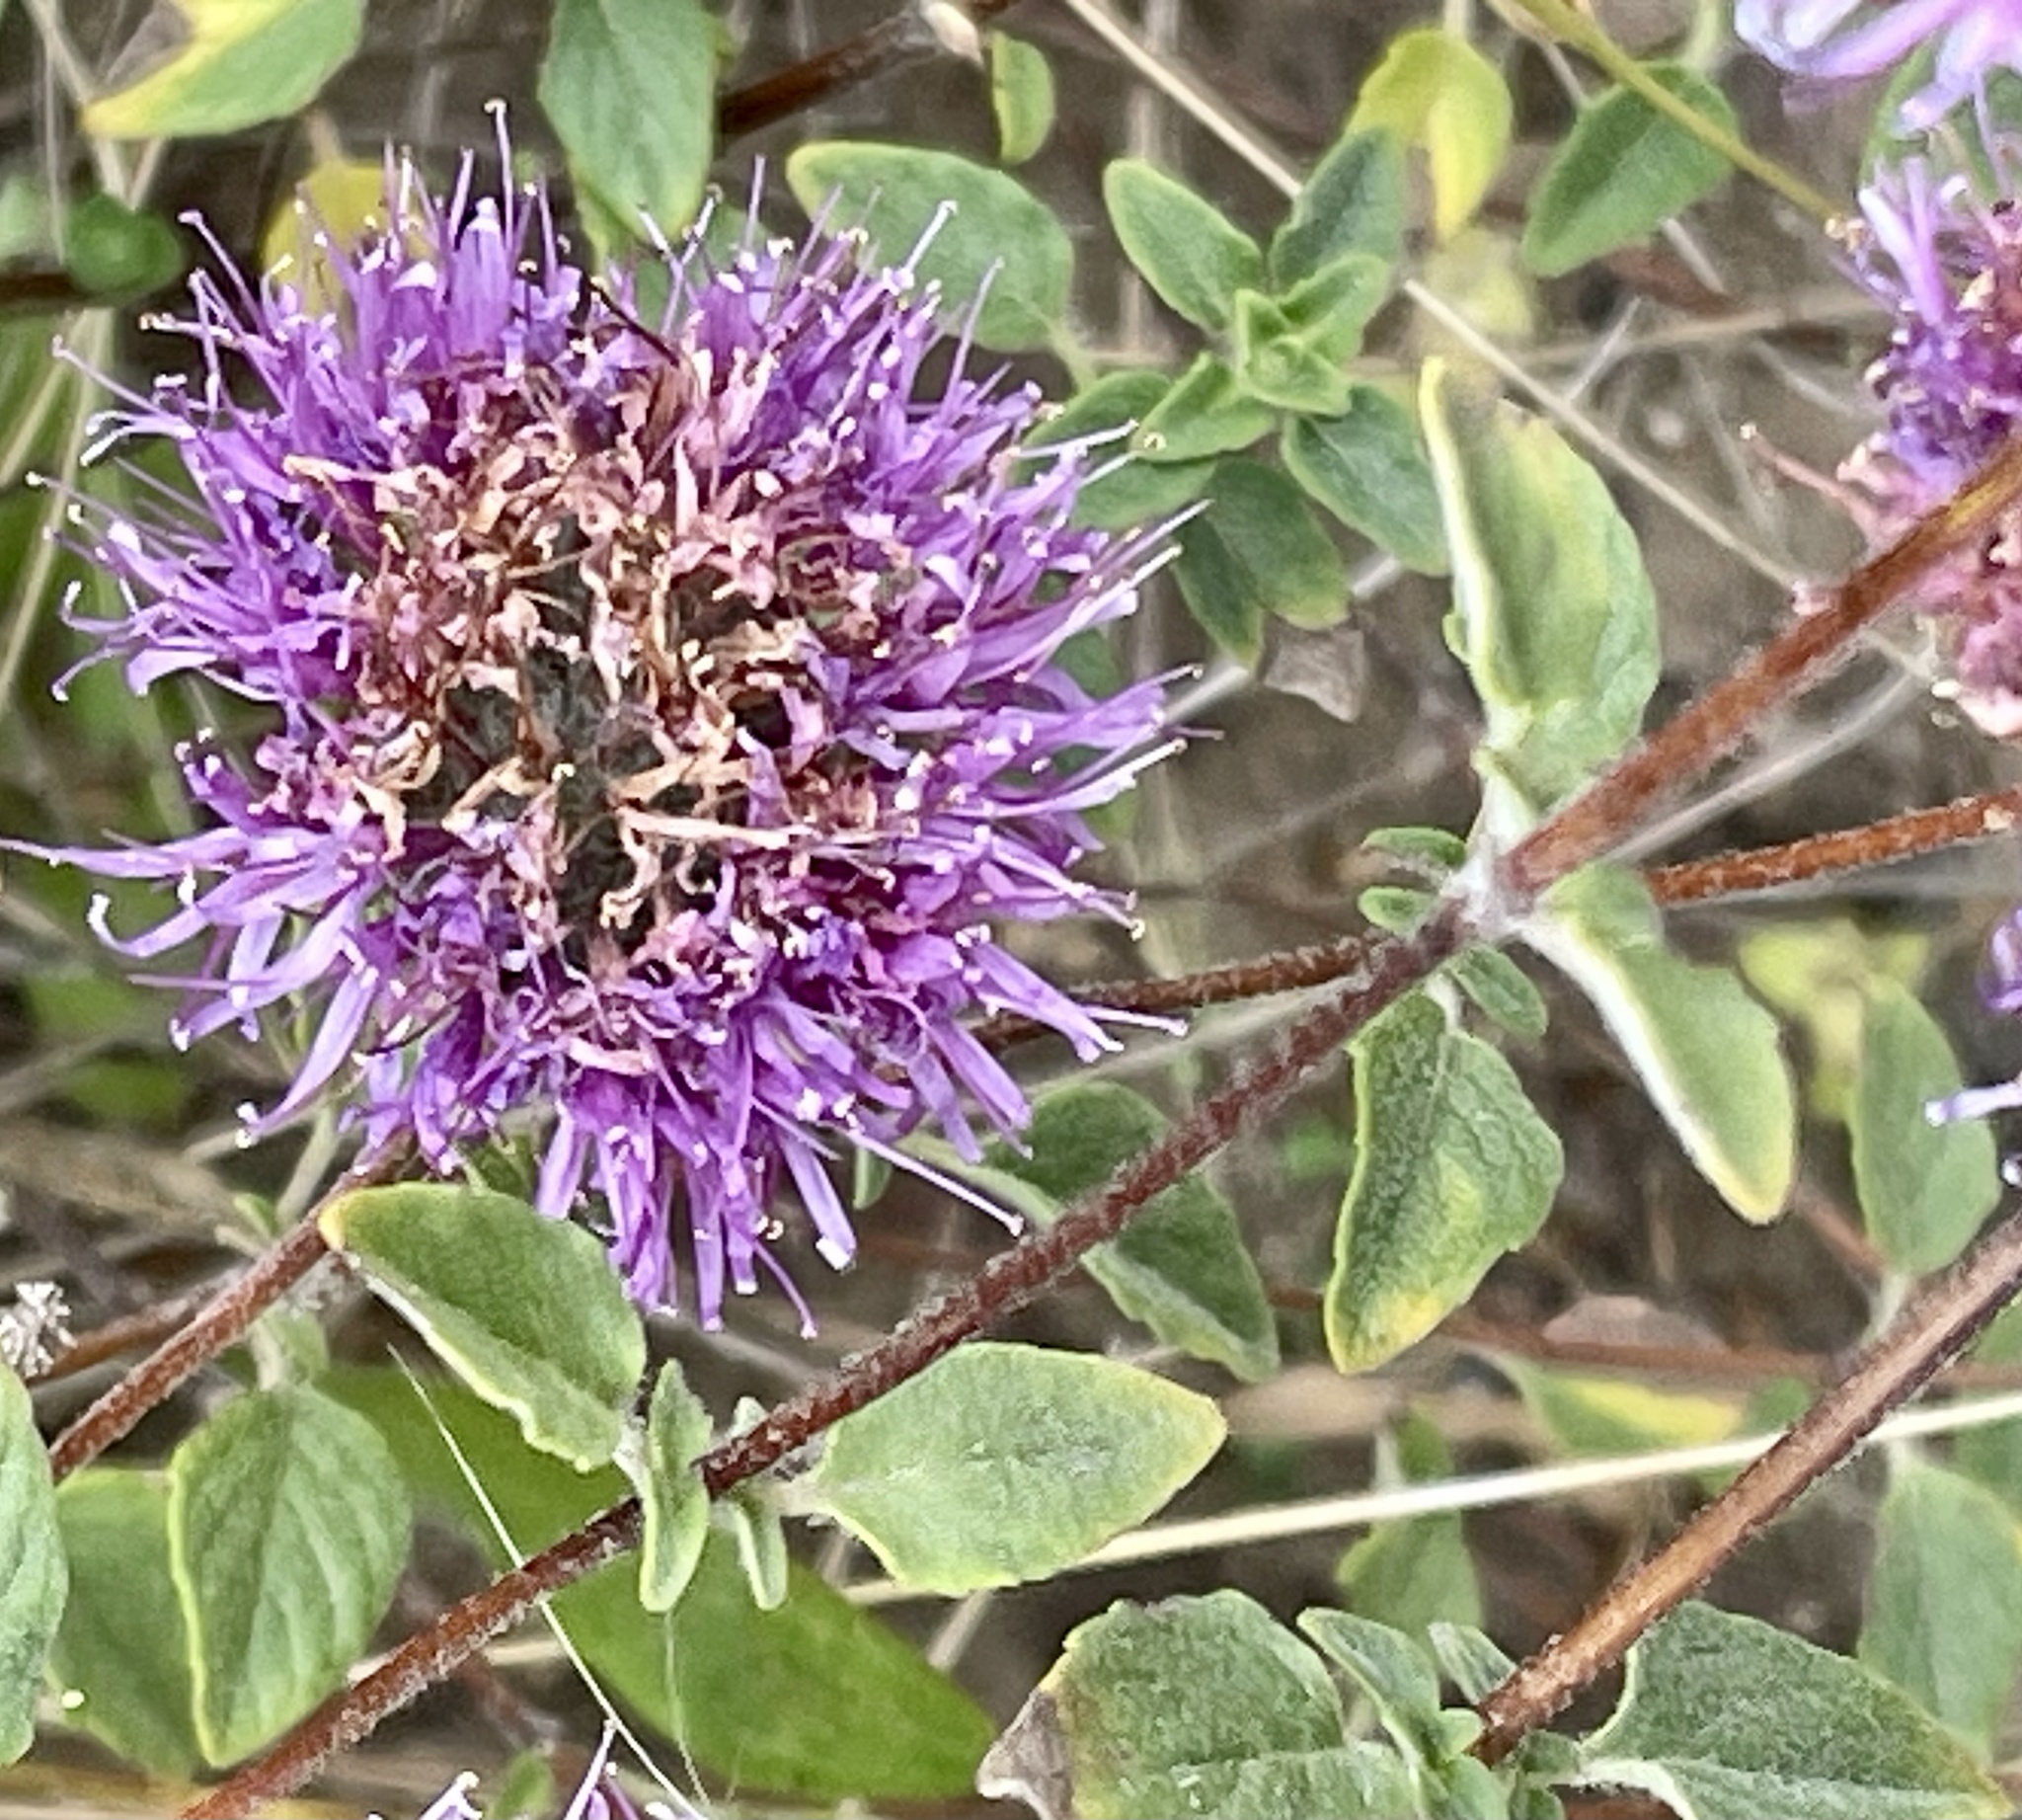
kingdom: Plantae
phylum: Tracheophyta
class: Magnoliopsida
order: Lamiales
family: Lamiaceae
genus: Monardella
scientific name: Monardella odoratissima
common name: Pacific monardella
